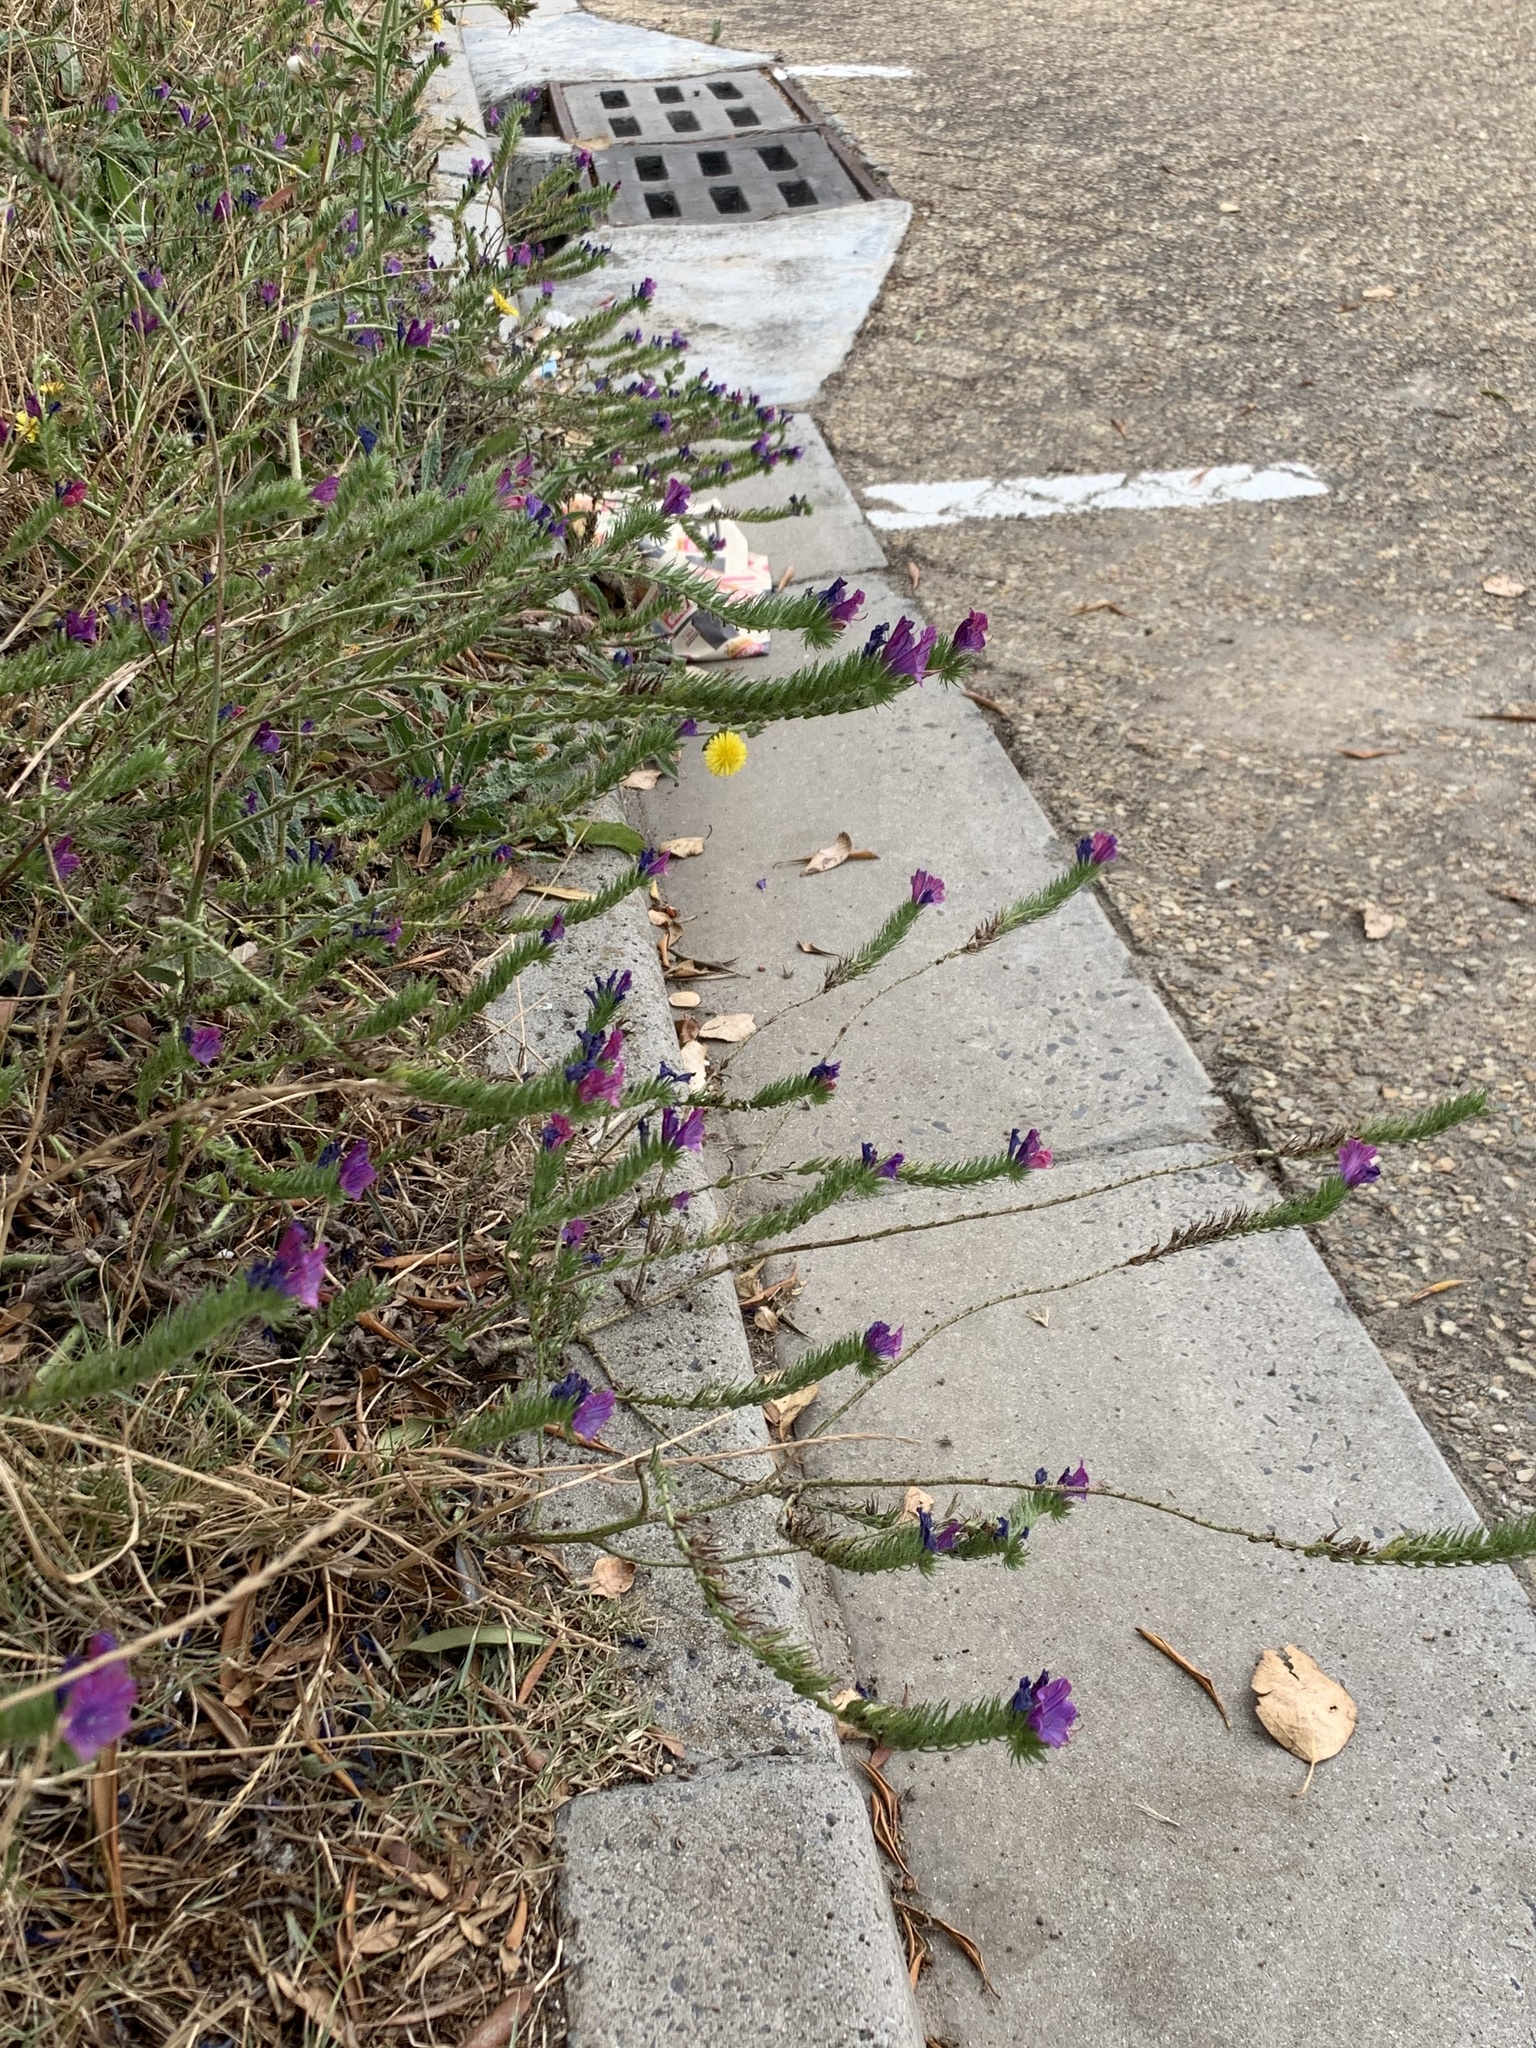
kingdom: Plantae
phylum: Tracheophyta
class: Magnoliopsida
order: Boraginales
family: Boraginaceae
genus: Echium
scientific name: Echium plantagineum
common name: Purple viper's-bugloss
